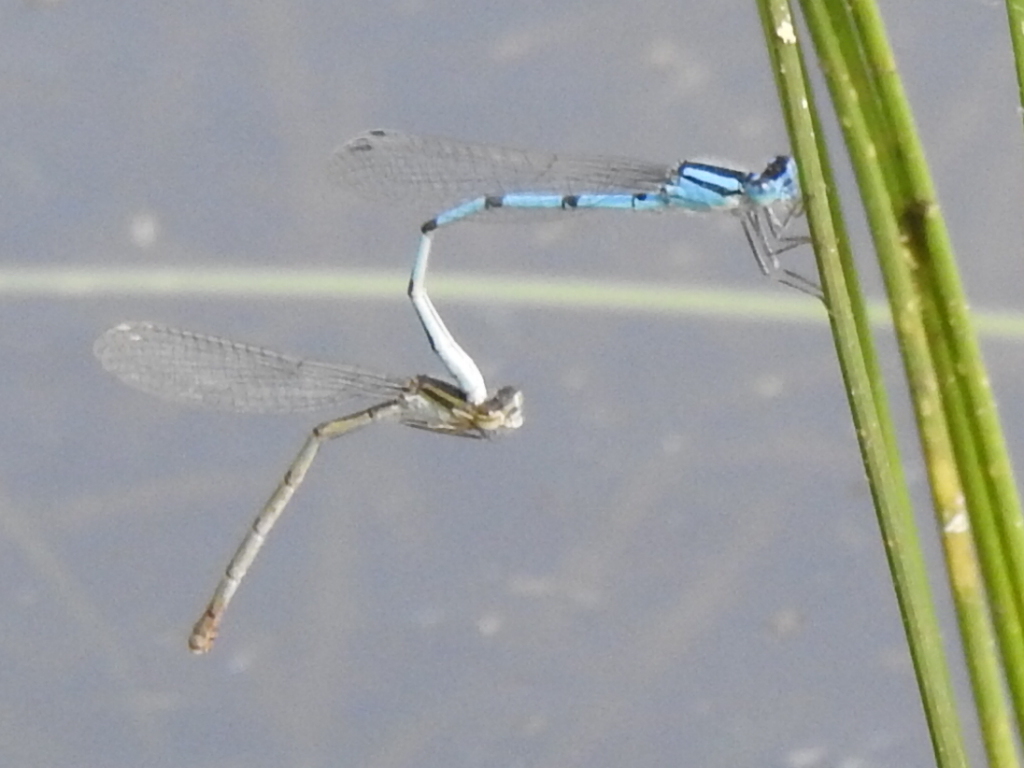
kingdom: Animalia
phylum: Arthropoda
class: Insecta
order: Odonata
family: Coenagrionidae
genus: Enallagma
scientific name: Enallagma civile
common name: Damselfly
